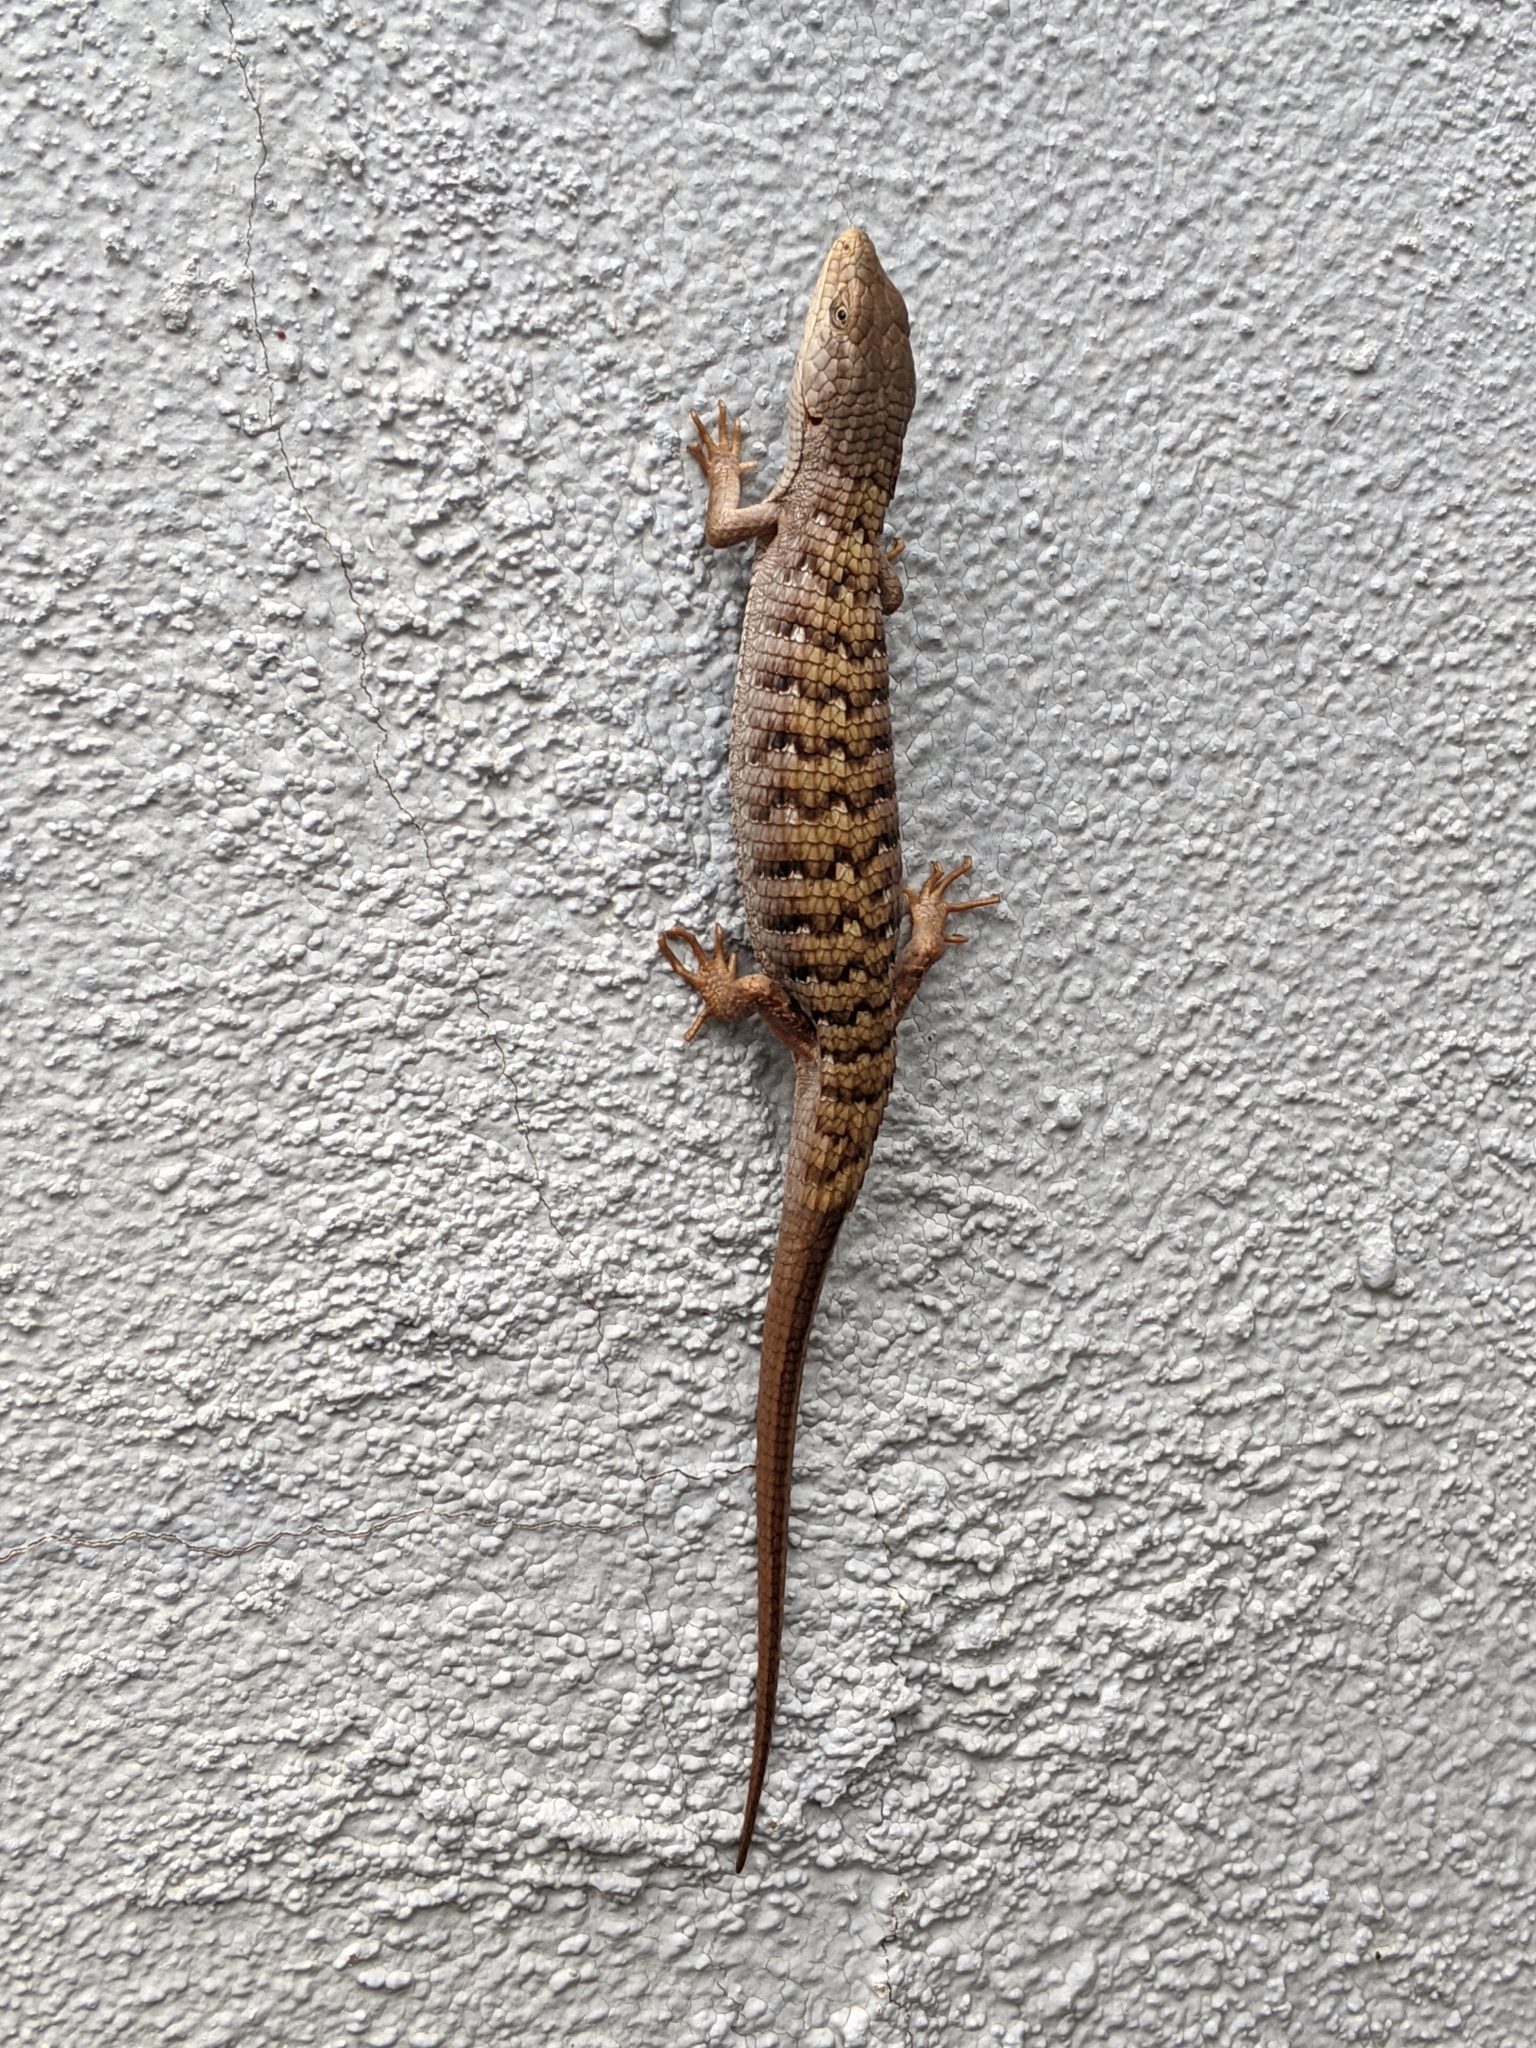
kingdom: Animalia
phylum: Chordata
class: Squamata
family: Anguidae
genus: Elgaria
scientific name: Elgaria multicarinata
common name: Southern alligator lizard
